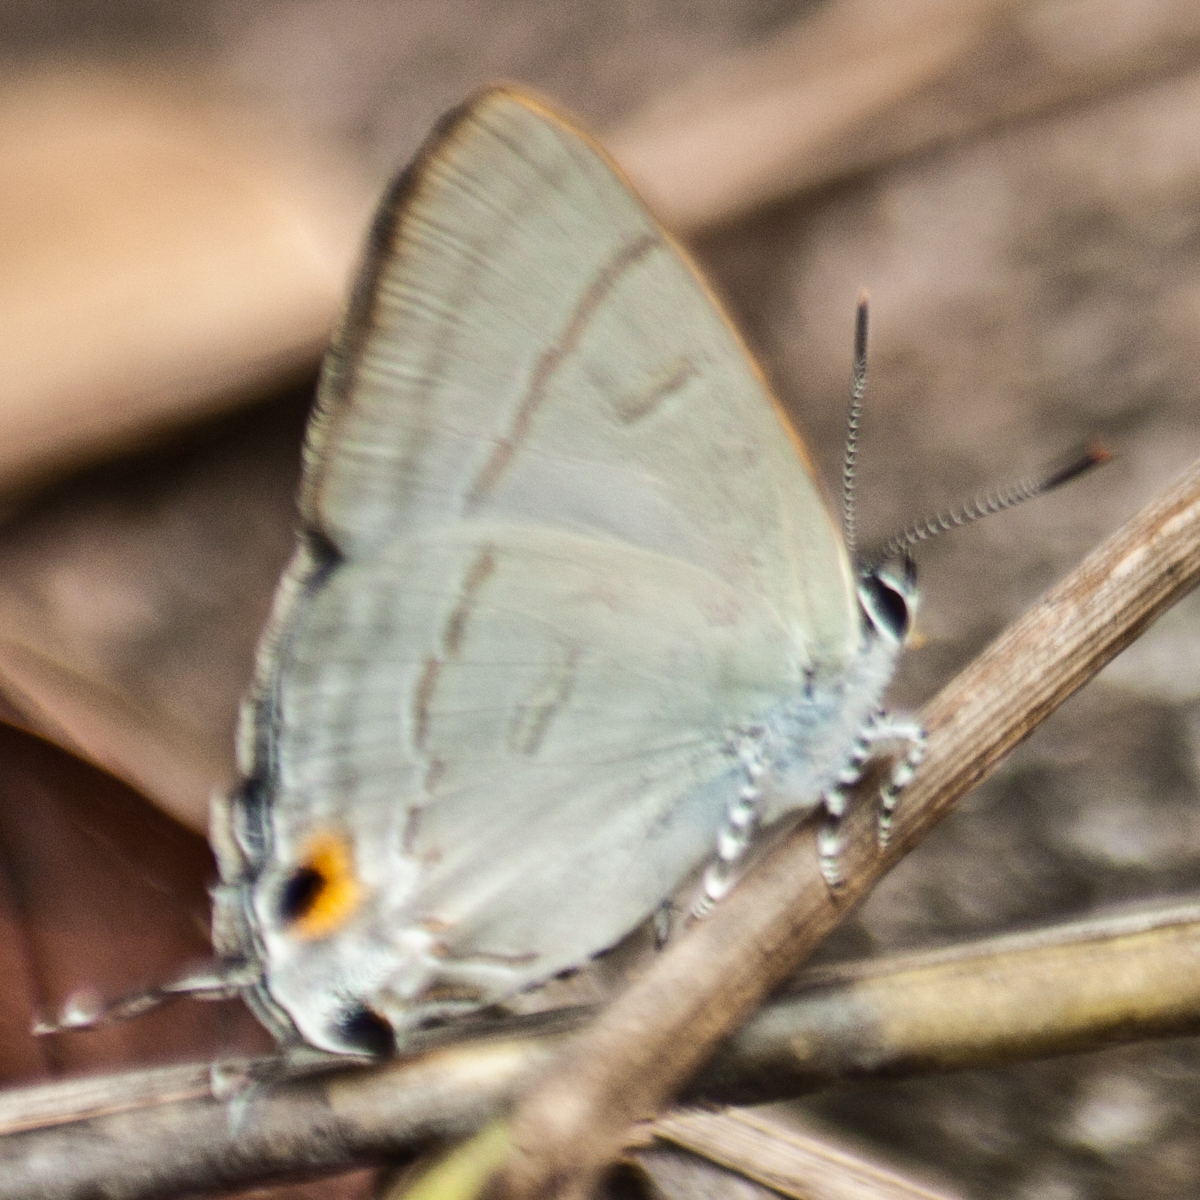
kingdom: Animalia
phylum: Arthropoda
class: Insecta
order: Lepidoptera
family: Lycaenidae
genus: Hypolycaena
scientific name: Hypolycaena erylus
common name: Common tit
